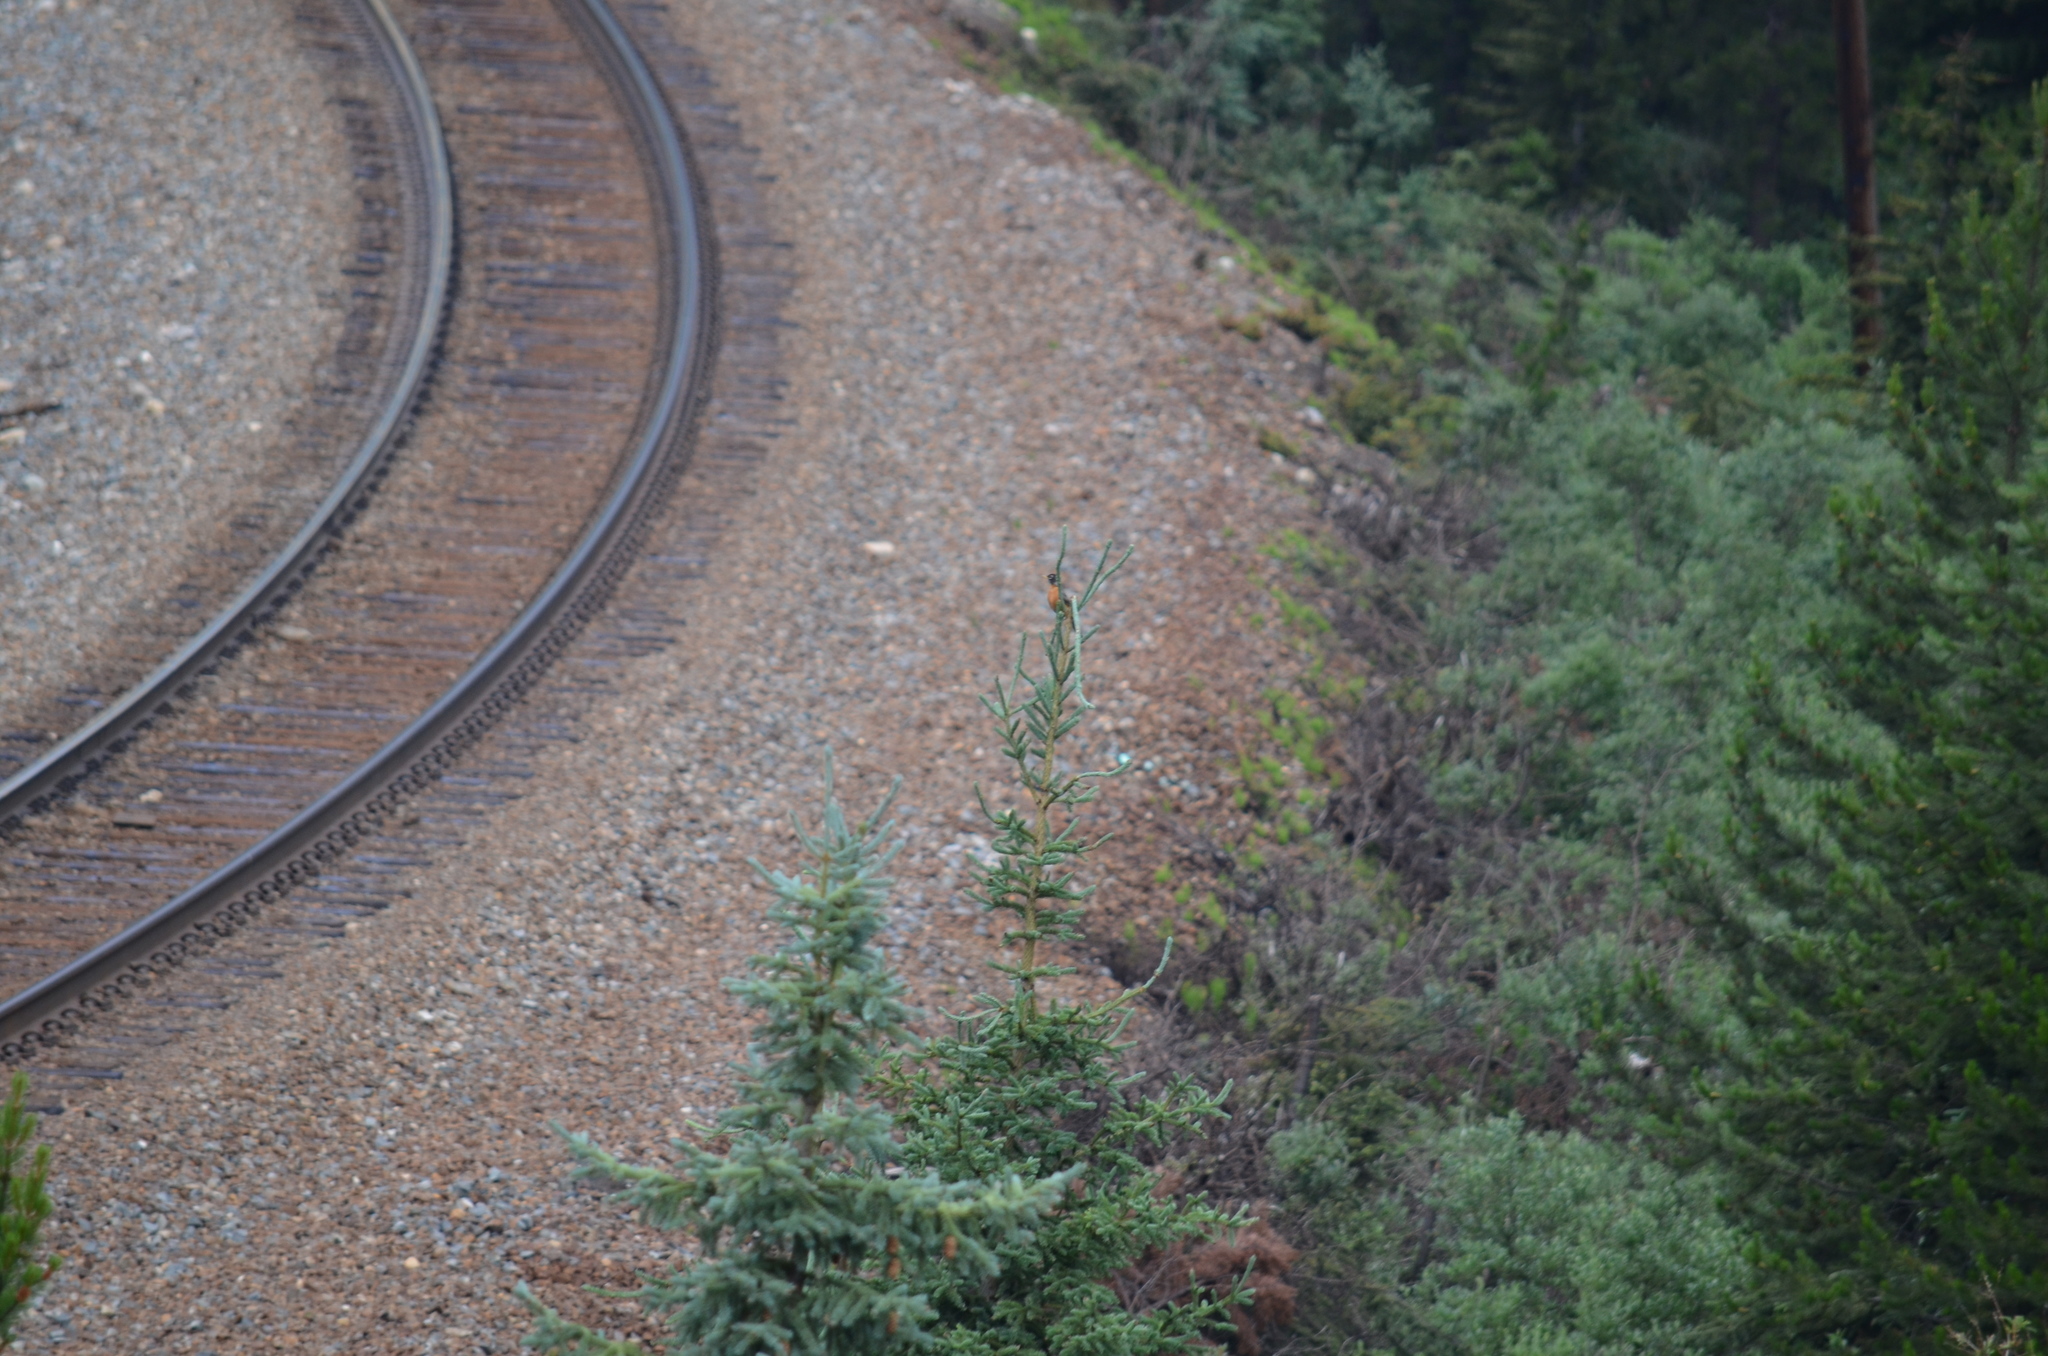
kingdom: Animalia
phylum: Chordata
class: Aves
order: Passeriformes
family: Turdidae
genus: Turdus
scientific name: Turdus migratorius
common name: American robin
